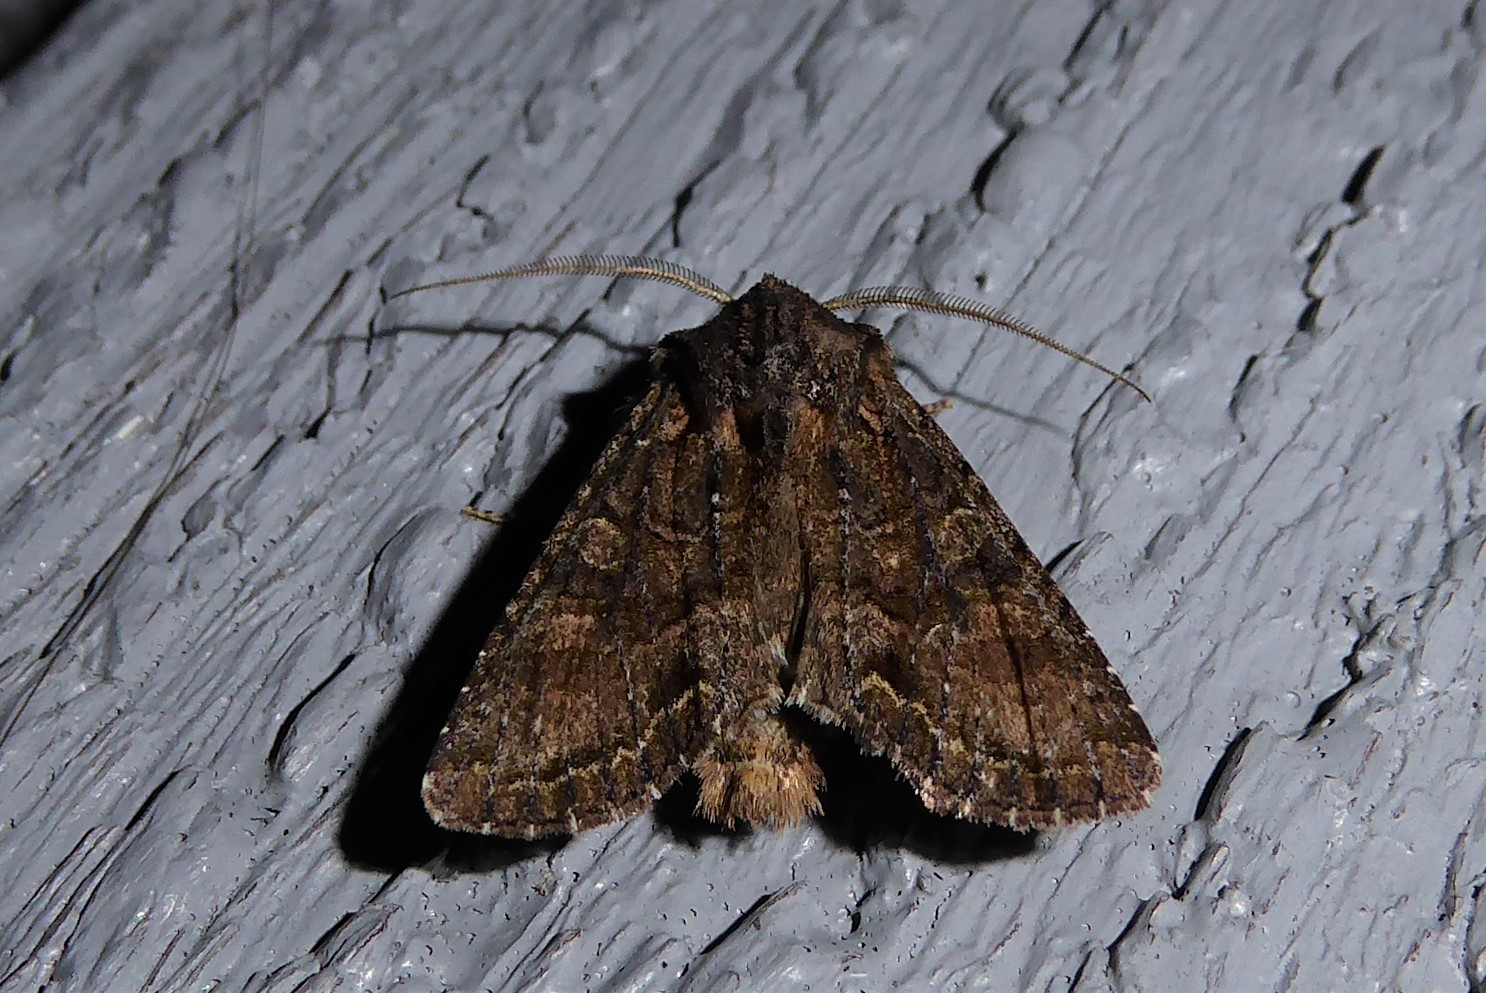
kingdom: Animalia
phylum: Arthropoda
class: Insecta
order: Lepidoptera
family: Noctuidae
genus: Ichneutica
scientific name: Ichneutica mutans
